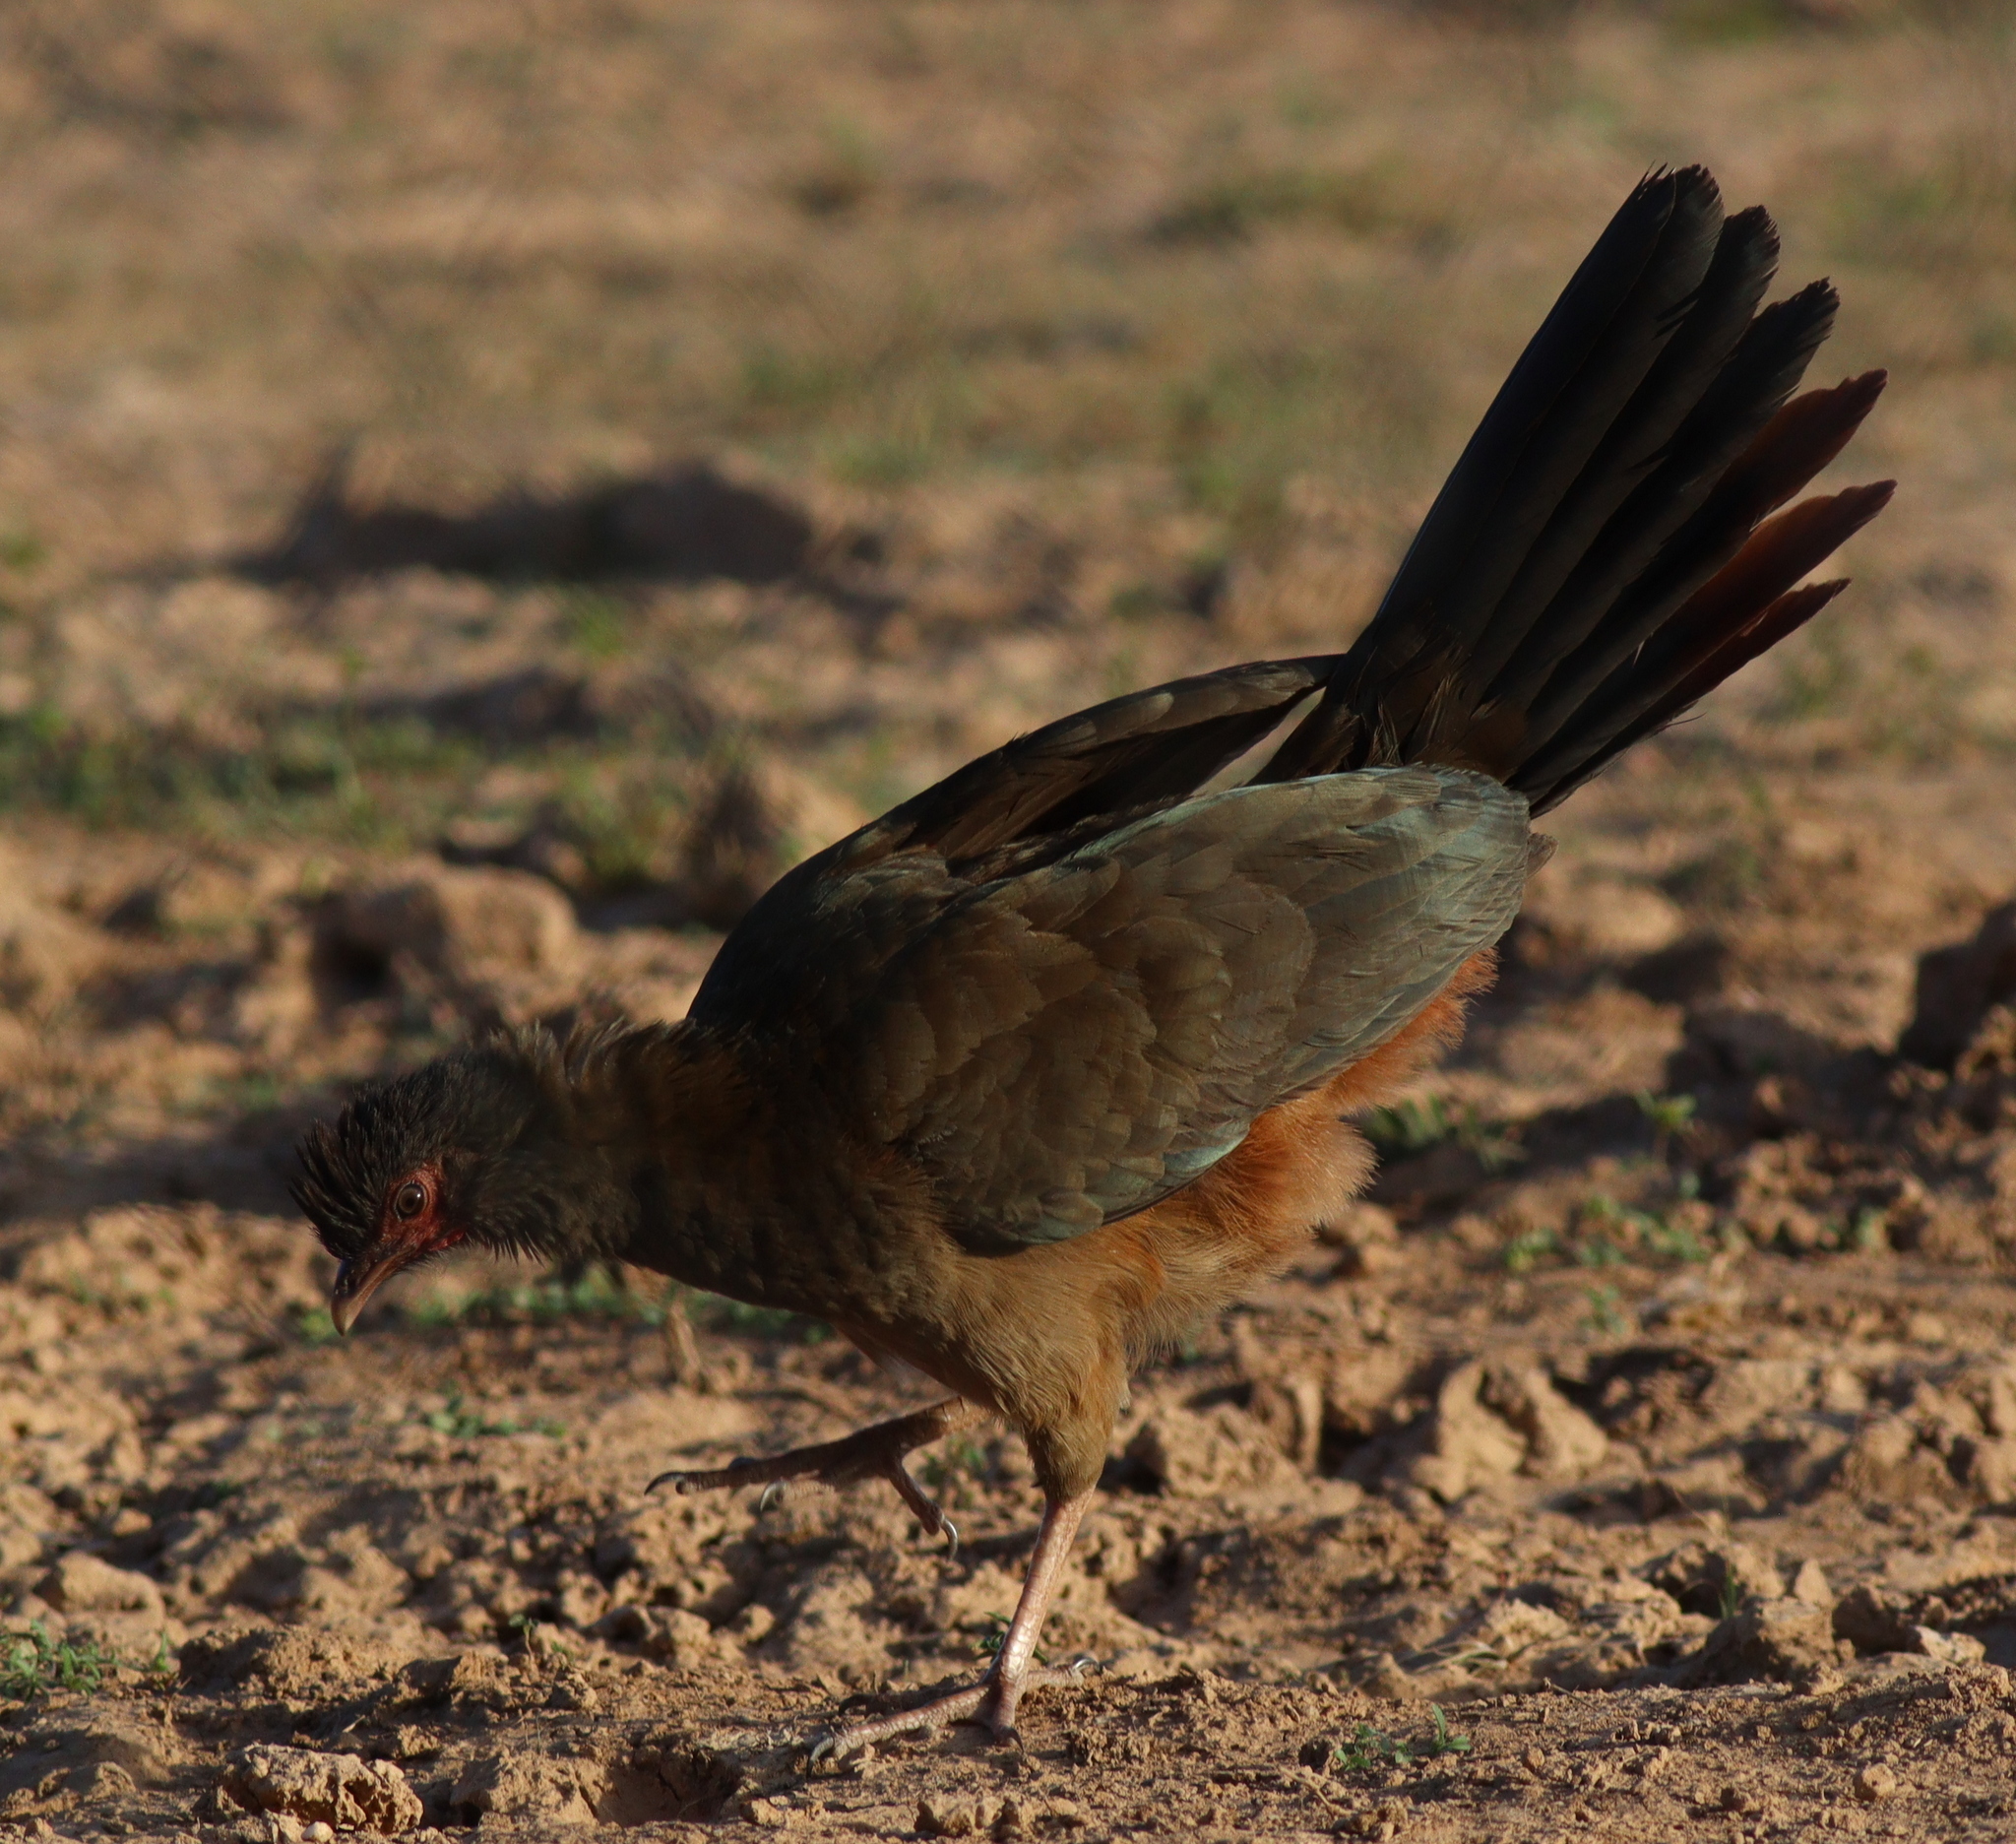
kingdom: Animalia
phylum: Chordata
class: Aves
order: Galliformes
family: Cracidae
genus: Ortalis
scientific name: Ortalis canicollis
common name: Chaco chachalaca
